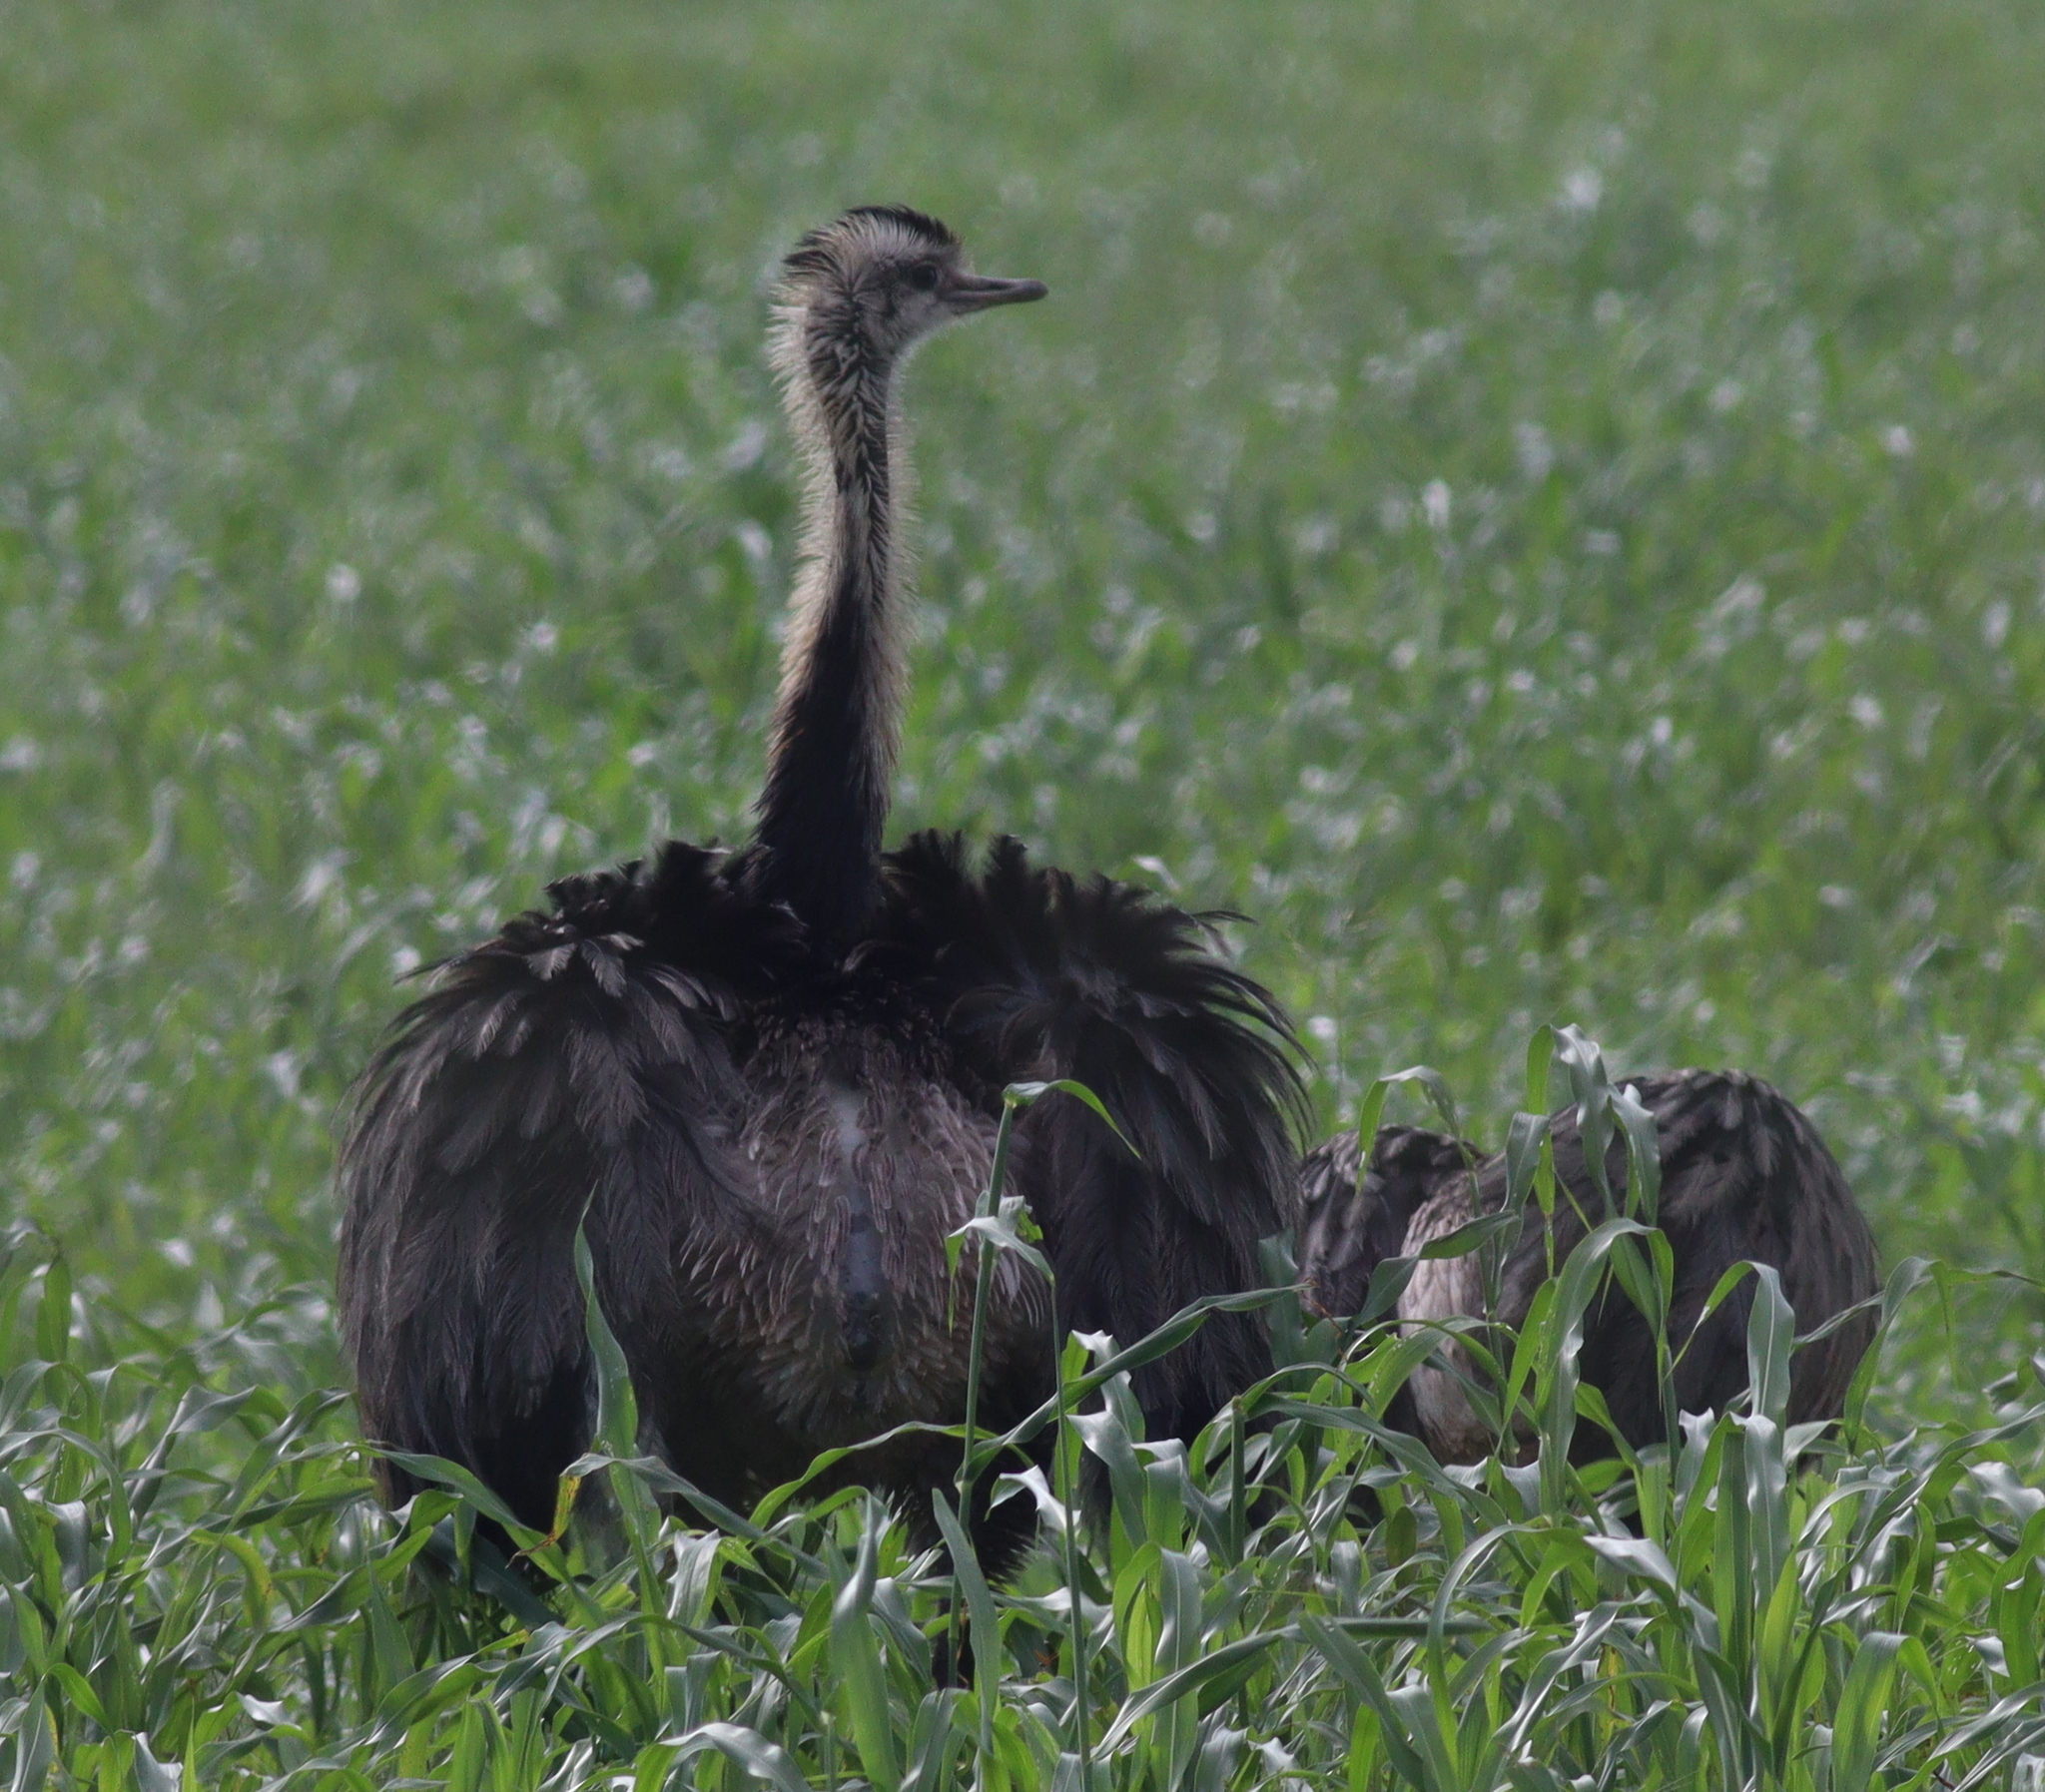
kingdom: Animalia
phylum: Chordata
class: Aves
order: Rheiformes
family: Rheidae
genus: Rhea
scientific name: Rhea americana
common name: Greater rhea
